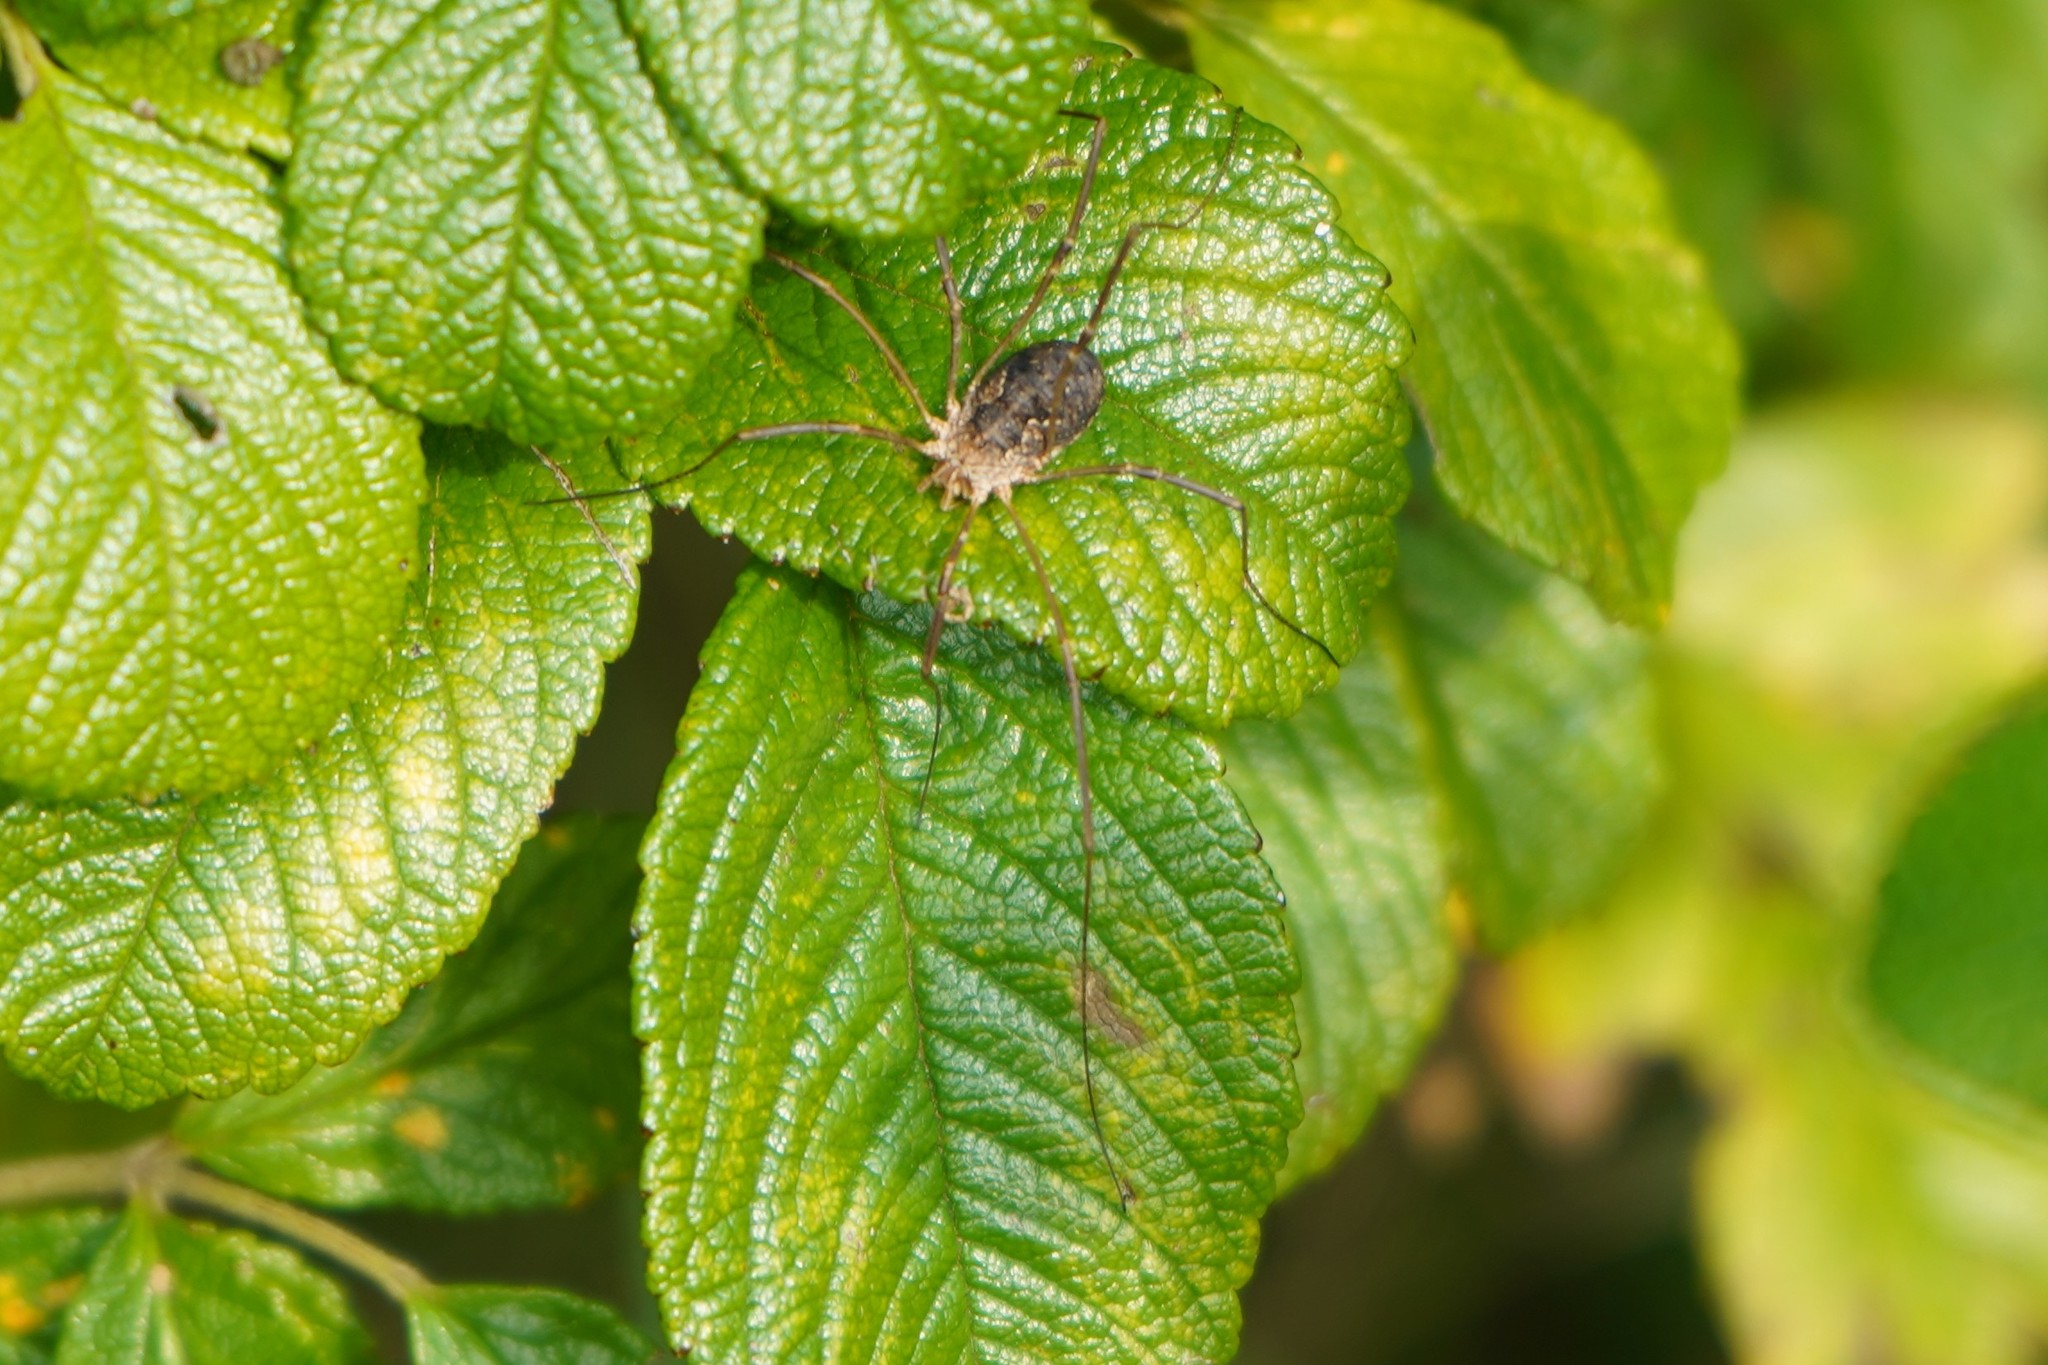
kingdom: Animalia
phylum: Arthropoda
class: Arachnida
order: Opiliones
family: Phalangiidae
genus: Phalangium
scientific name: Phalangium opilio
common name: Daddy longleg
